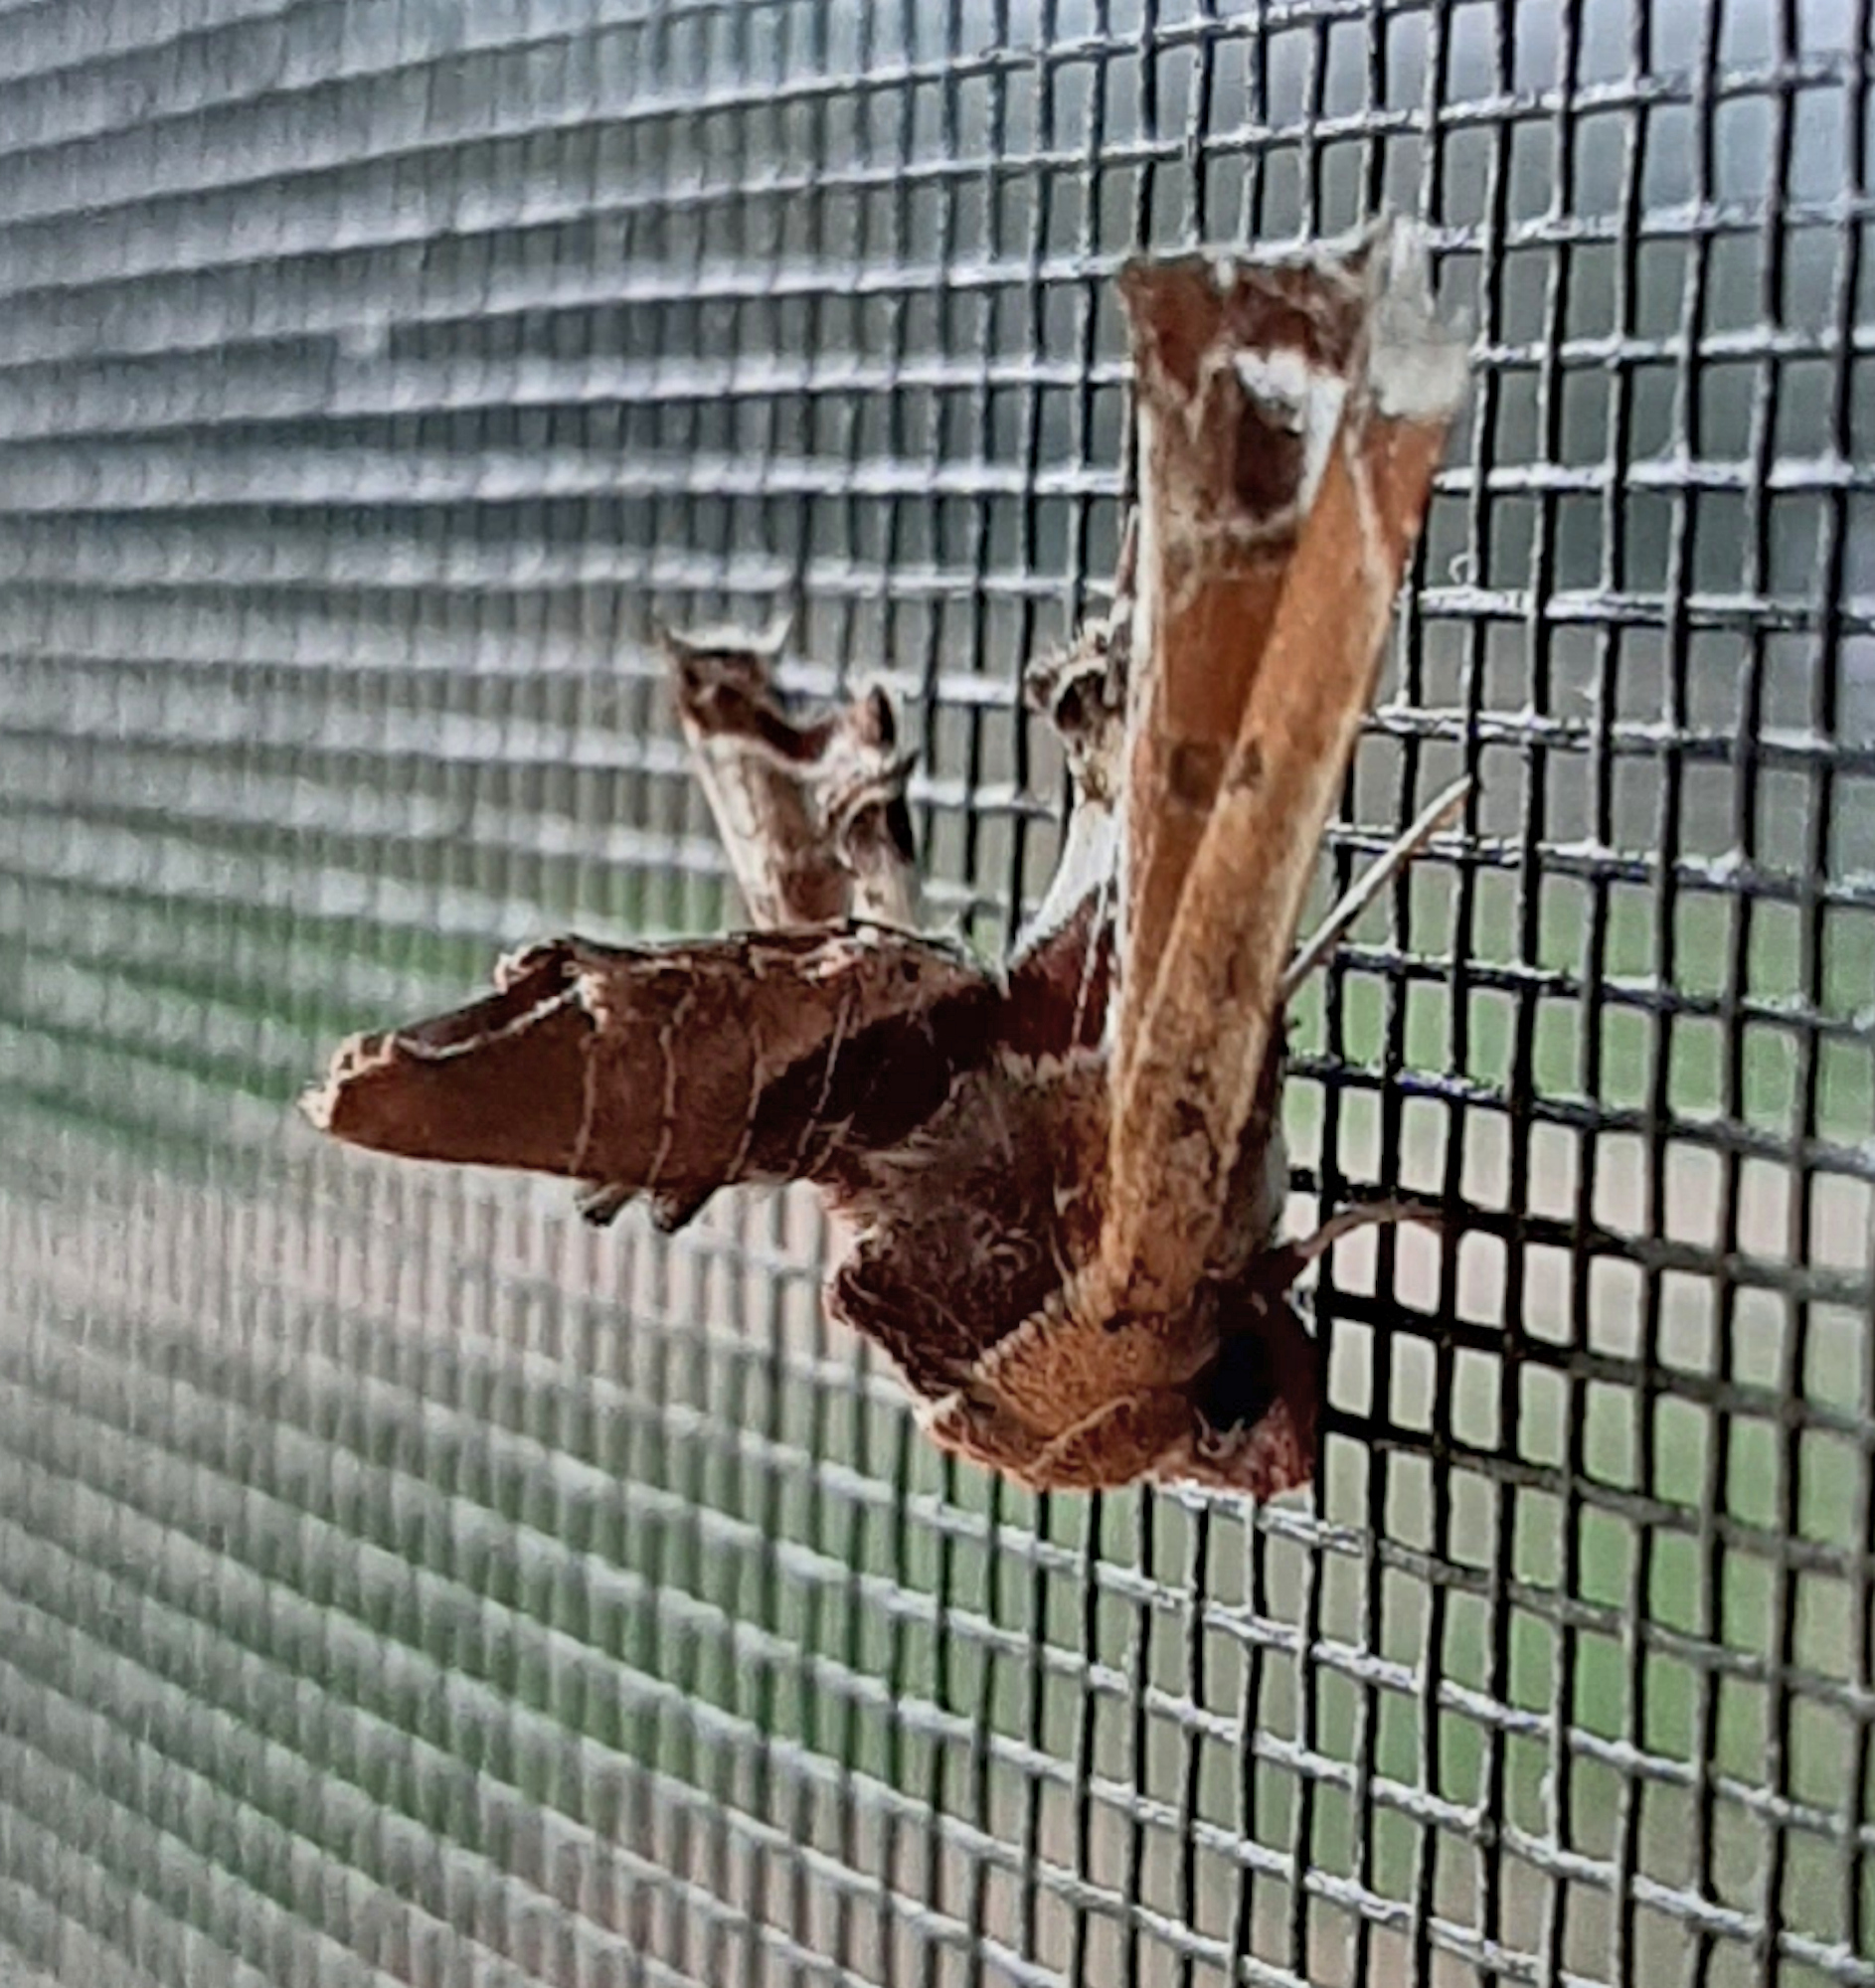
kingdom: Animalia
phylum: Arthropoda
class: Insecta
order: Lepidoptera
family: Euteliidae
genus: Eutelia
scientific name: Eutelia pulcherrimus
